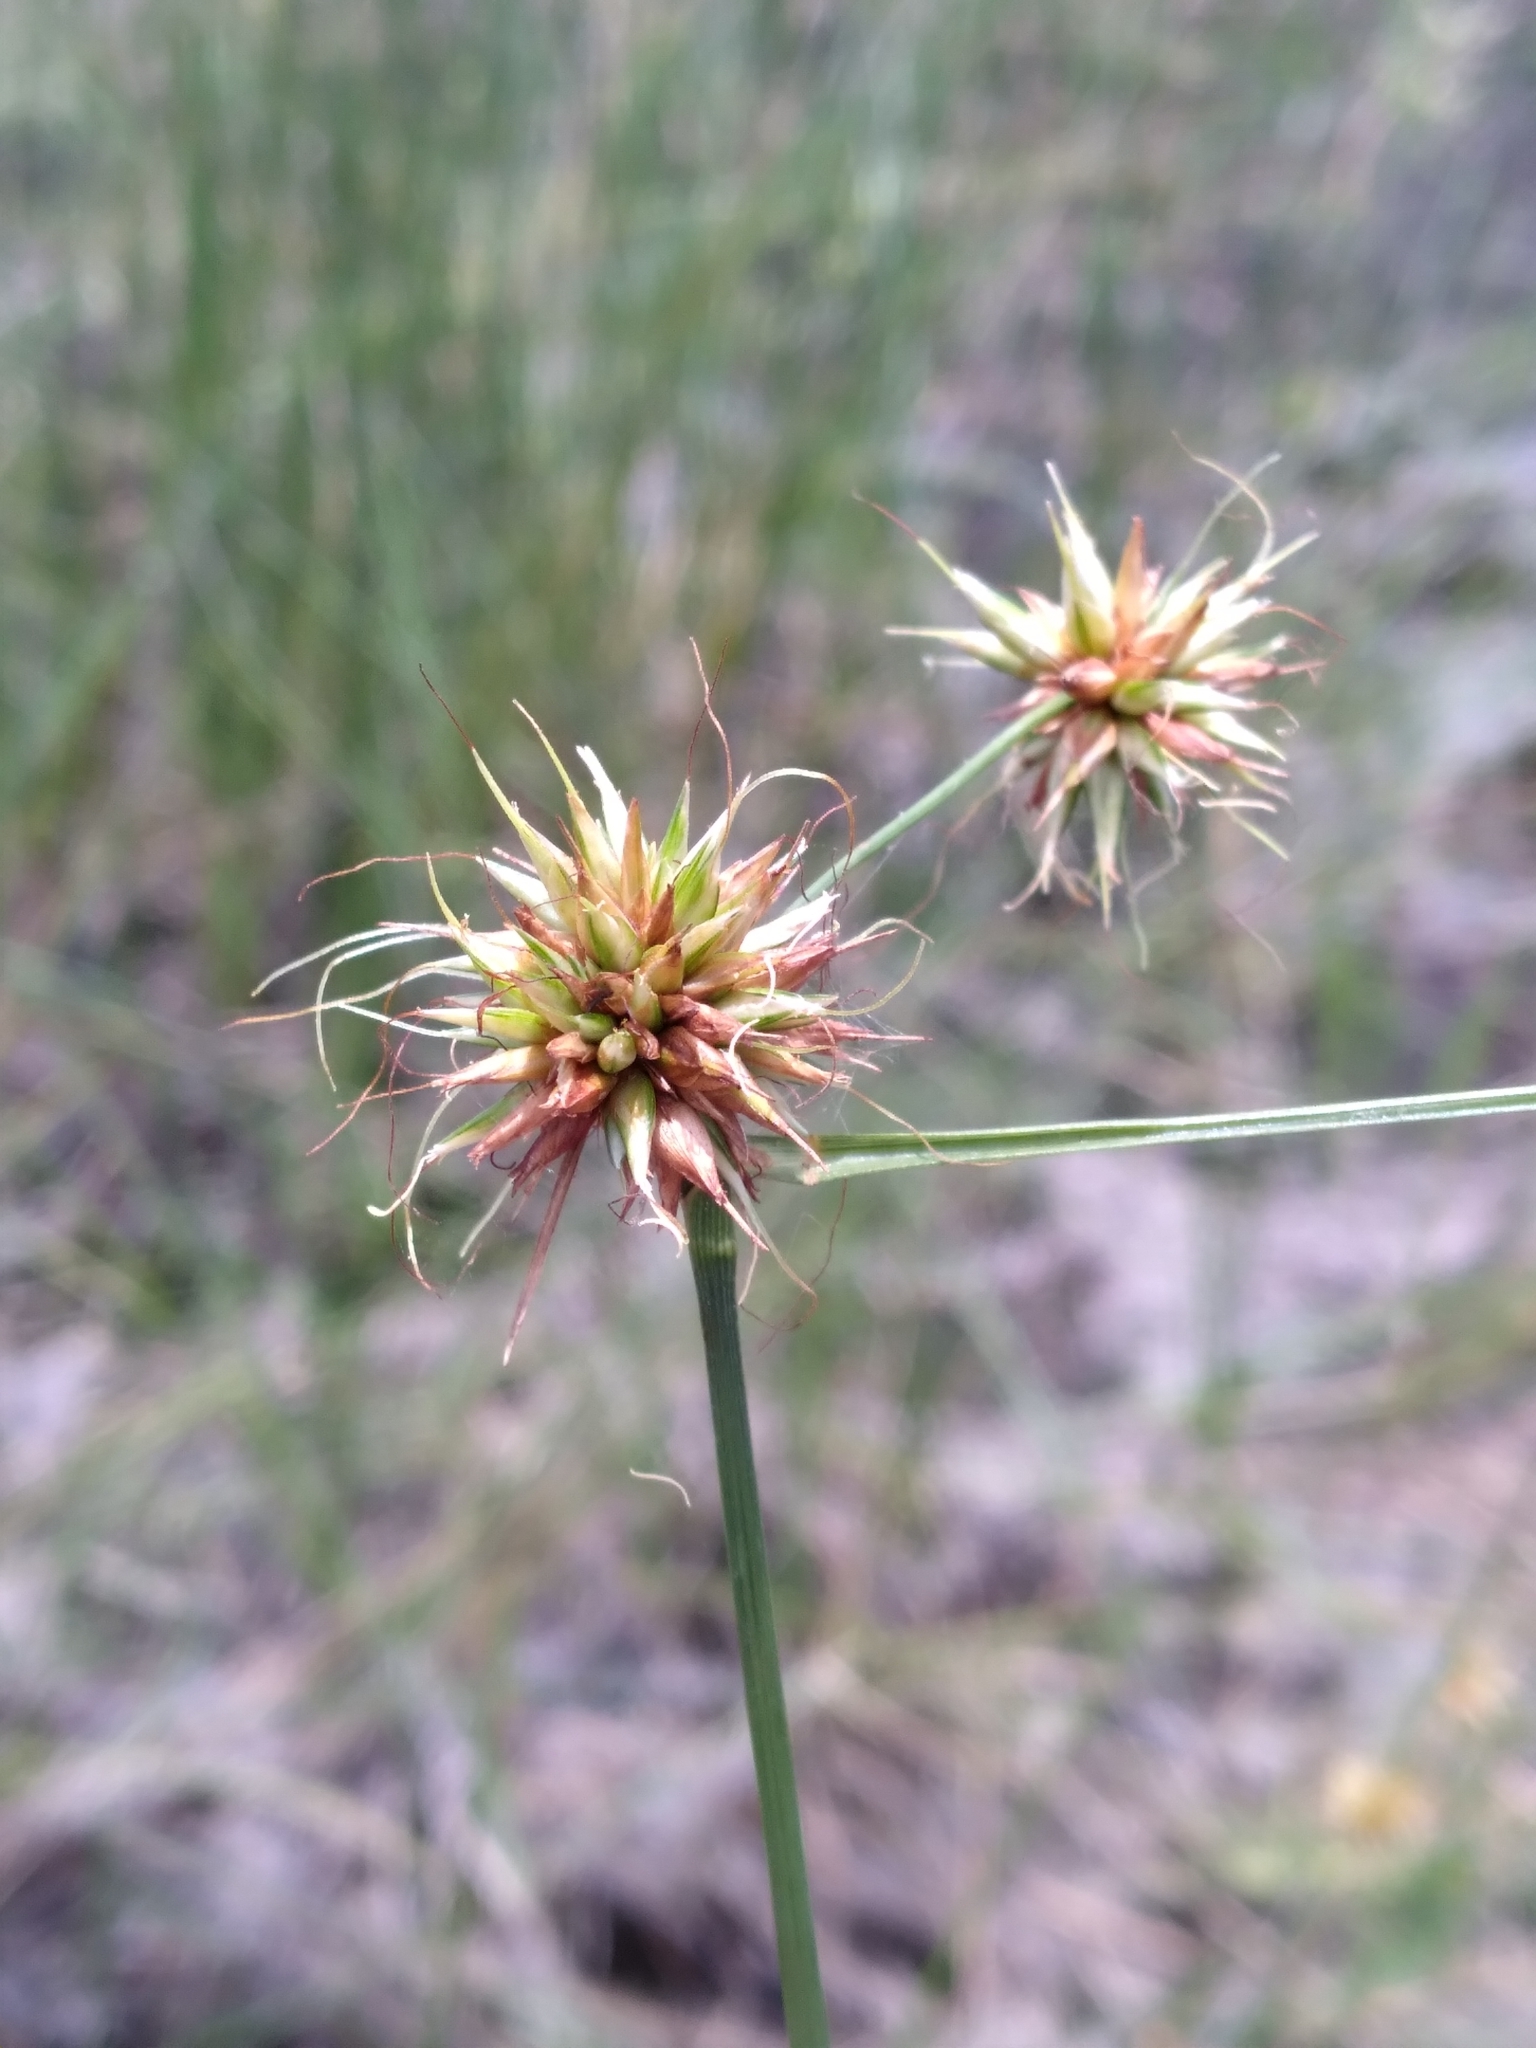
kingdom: Plantae
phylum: Tracheophyta
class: Liliopsida
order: Poales
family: Cyperaceae
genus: Rhynchospora
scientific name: Rhynchospora tracyi
